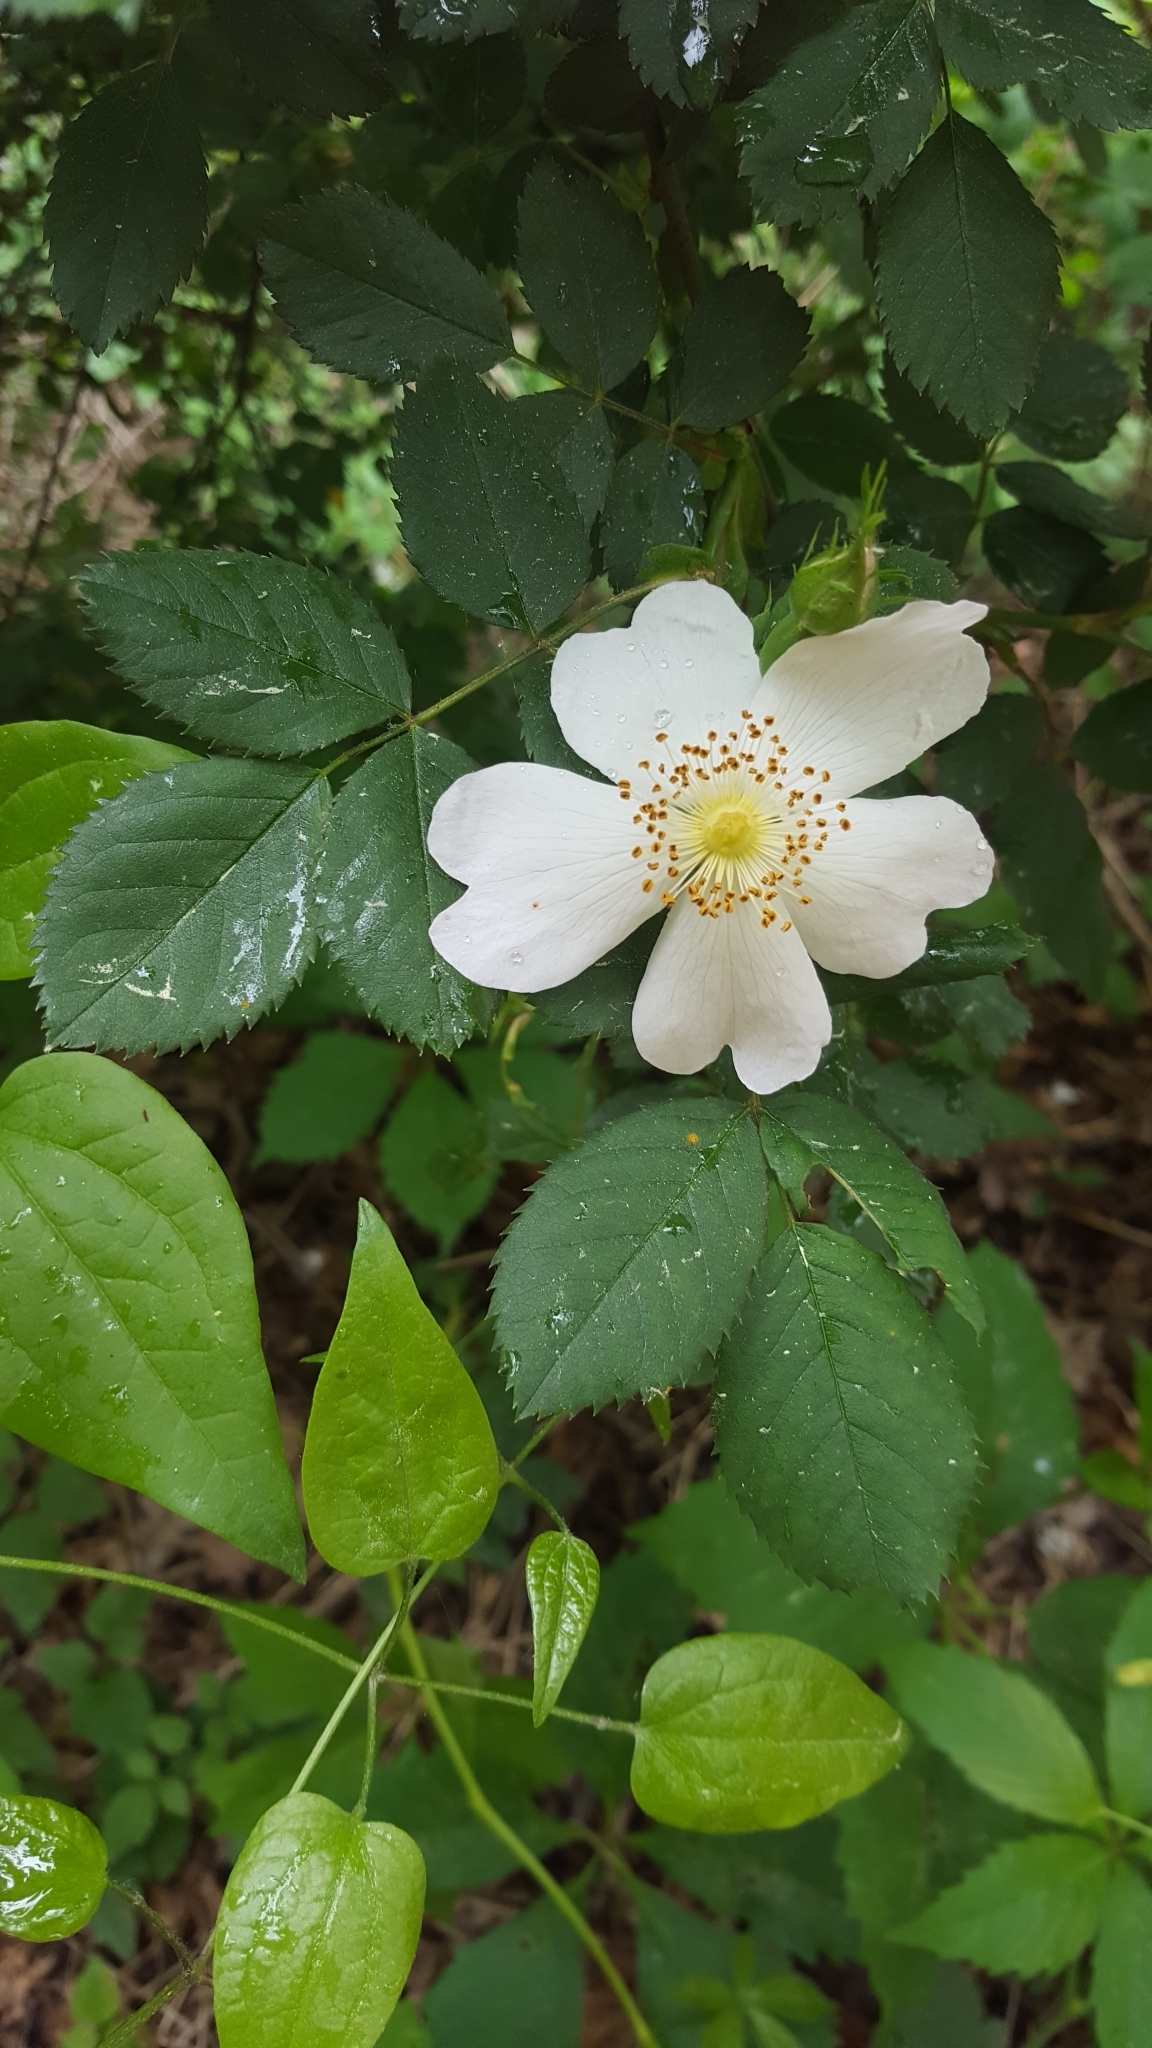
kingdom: Plantae
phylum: Tracheophyta
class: Magnoliopsida
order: Rosales
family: Rosaceae
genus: Rosa
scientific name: Rosa canina
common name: Dog rose
